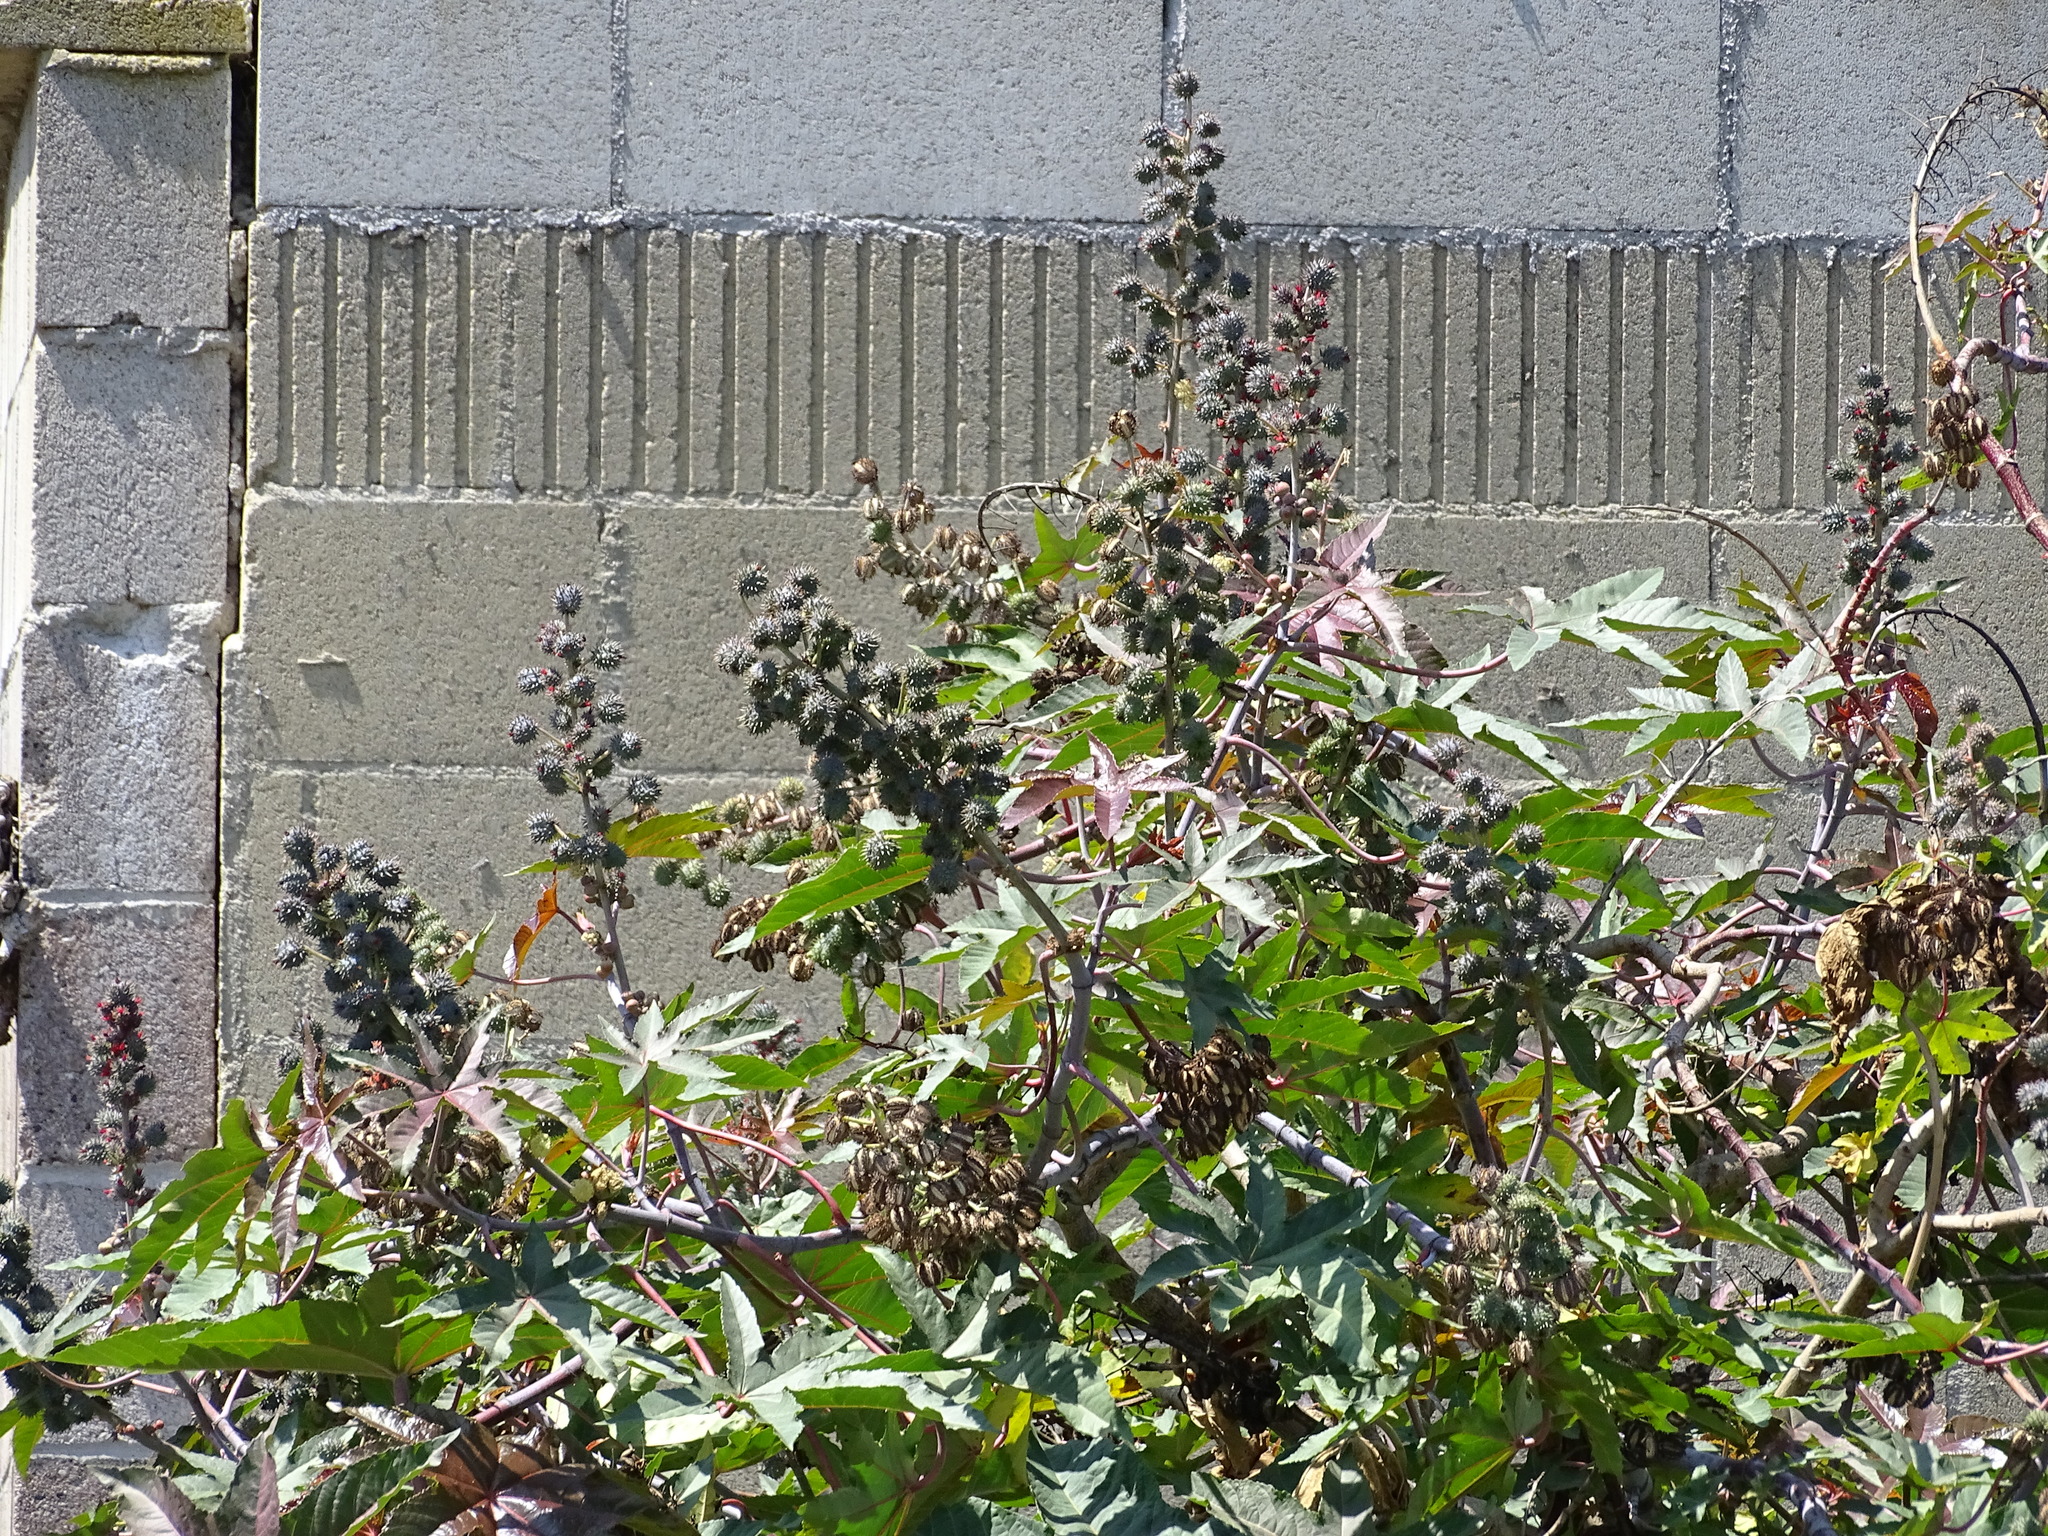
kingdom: Plantae
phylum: Tracheophyta
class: Magnoliopsida
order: Malpighiales
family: Euphorbiaceae
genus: Ricinus
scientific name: Ricinus communis
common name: Castor-oil-plant
